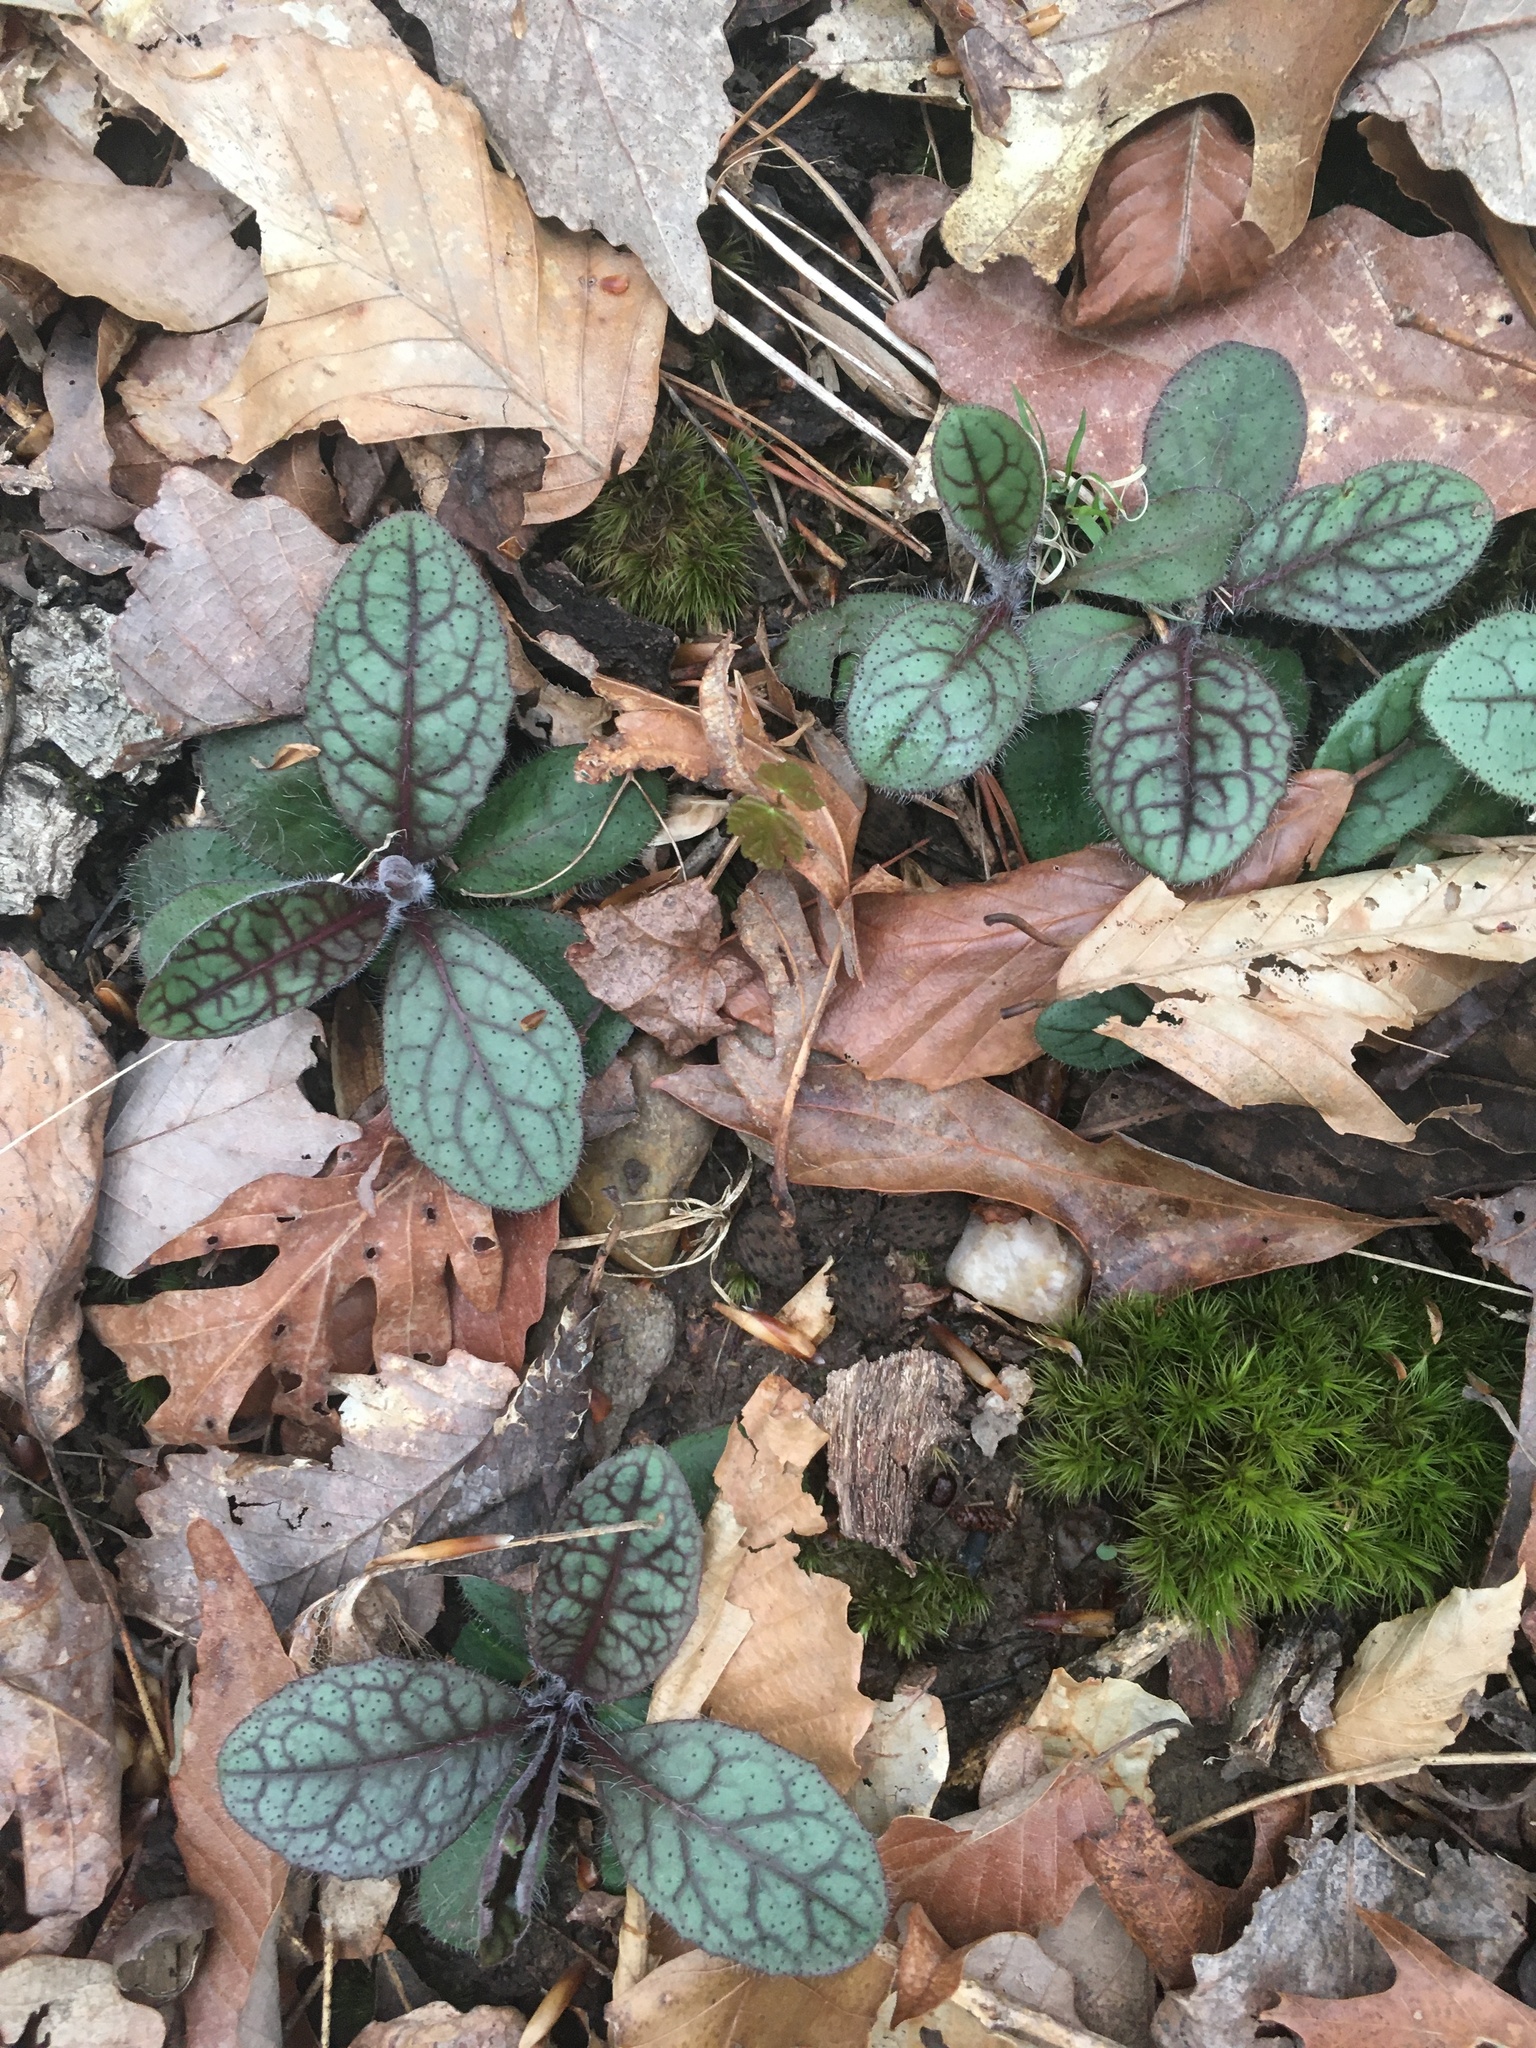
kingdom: Plantae
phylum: Tracheophyta
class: Magnoliopsida
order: Asterales
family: Asteraceae
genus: Hieracium
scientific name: Hieracium venosum
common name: Rattlesnake hawkweed
